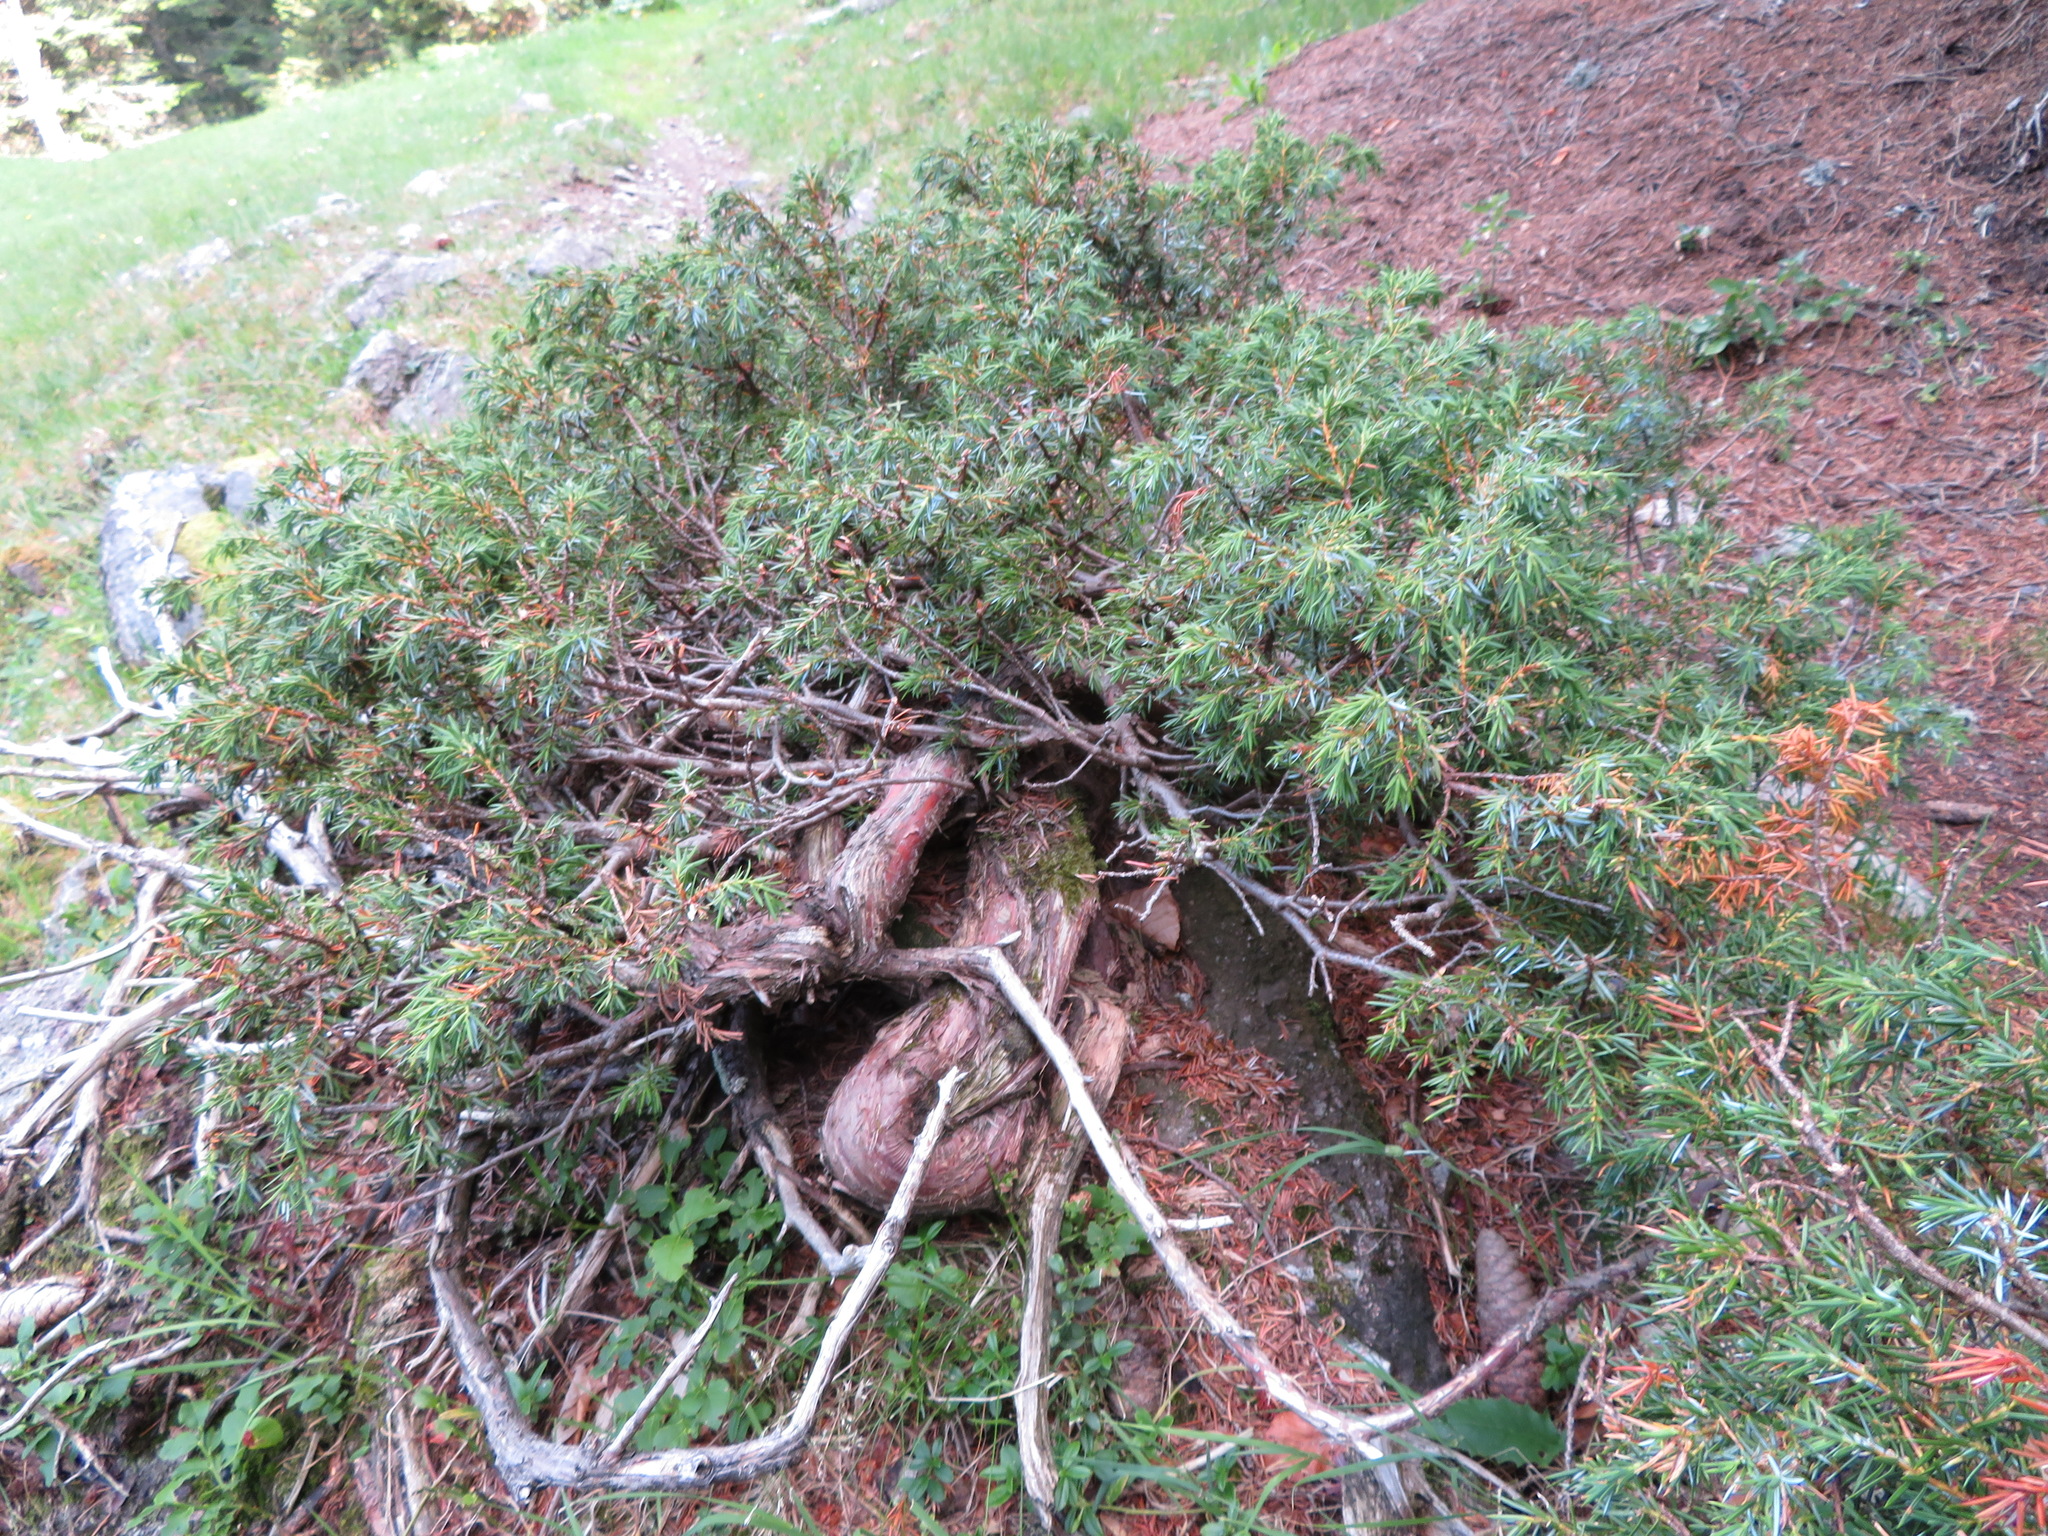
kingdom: Plantae
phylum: Tracheophyta
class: Pinopsida
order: Pinales
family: Cupressaceae
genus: Juniperus
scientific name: Juniperus communis
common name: Common juniper
